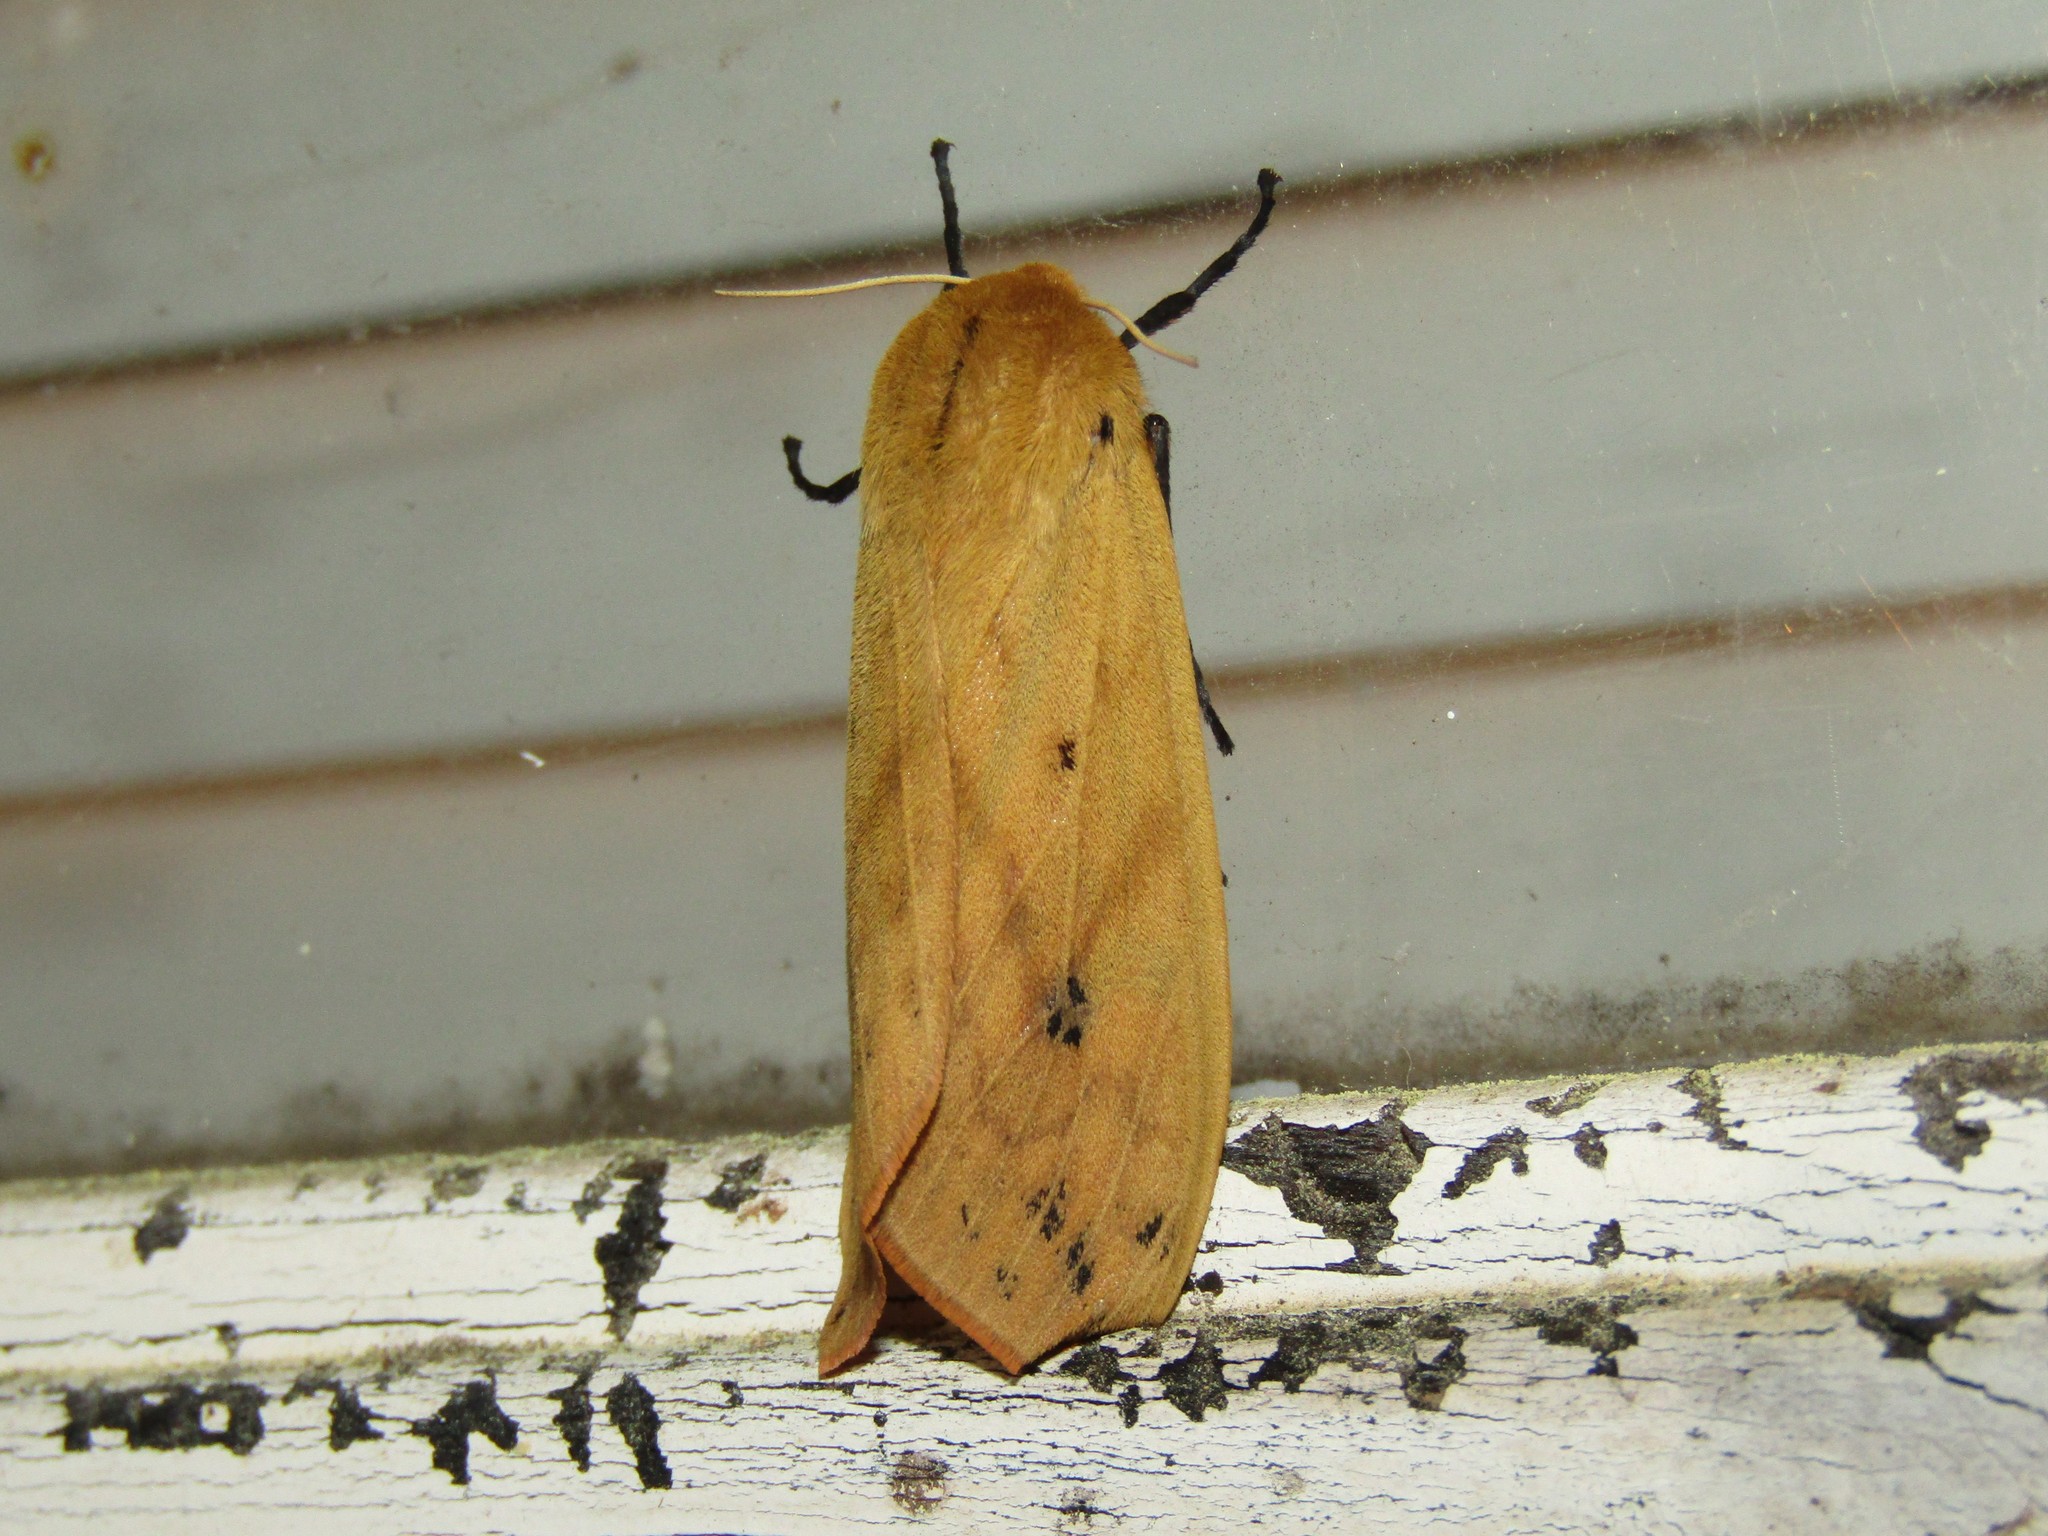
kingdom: Animalia
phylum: Arthropoda
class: Insecta
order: Lepidoptera
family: Erebidae
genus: Pyrrharctia
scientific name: Pyrrharctia isabella
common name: Isabella tiger moth
